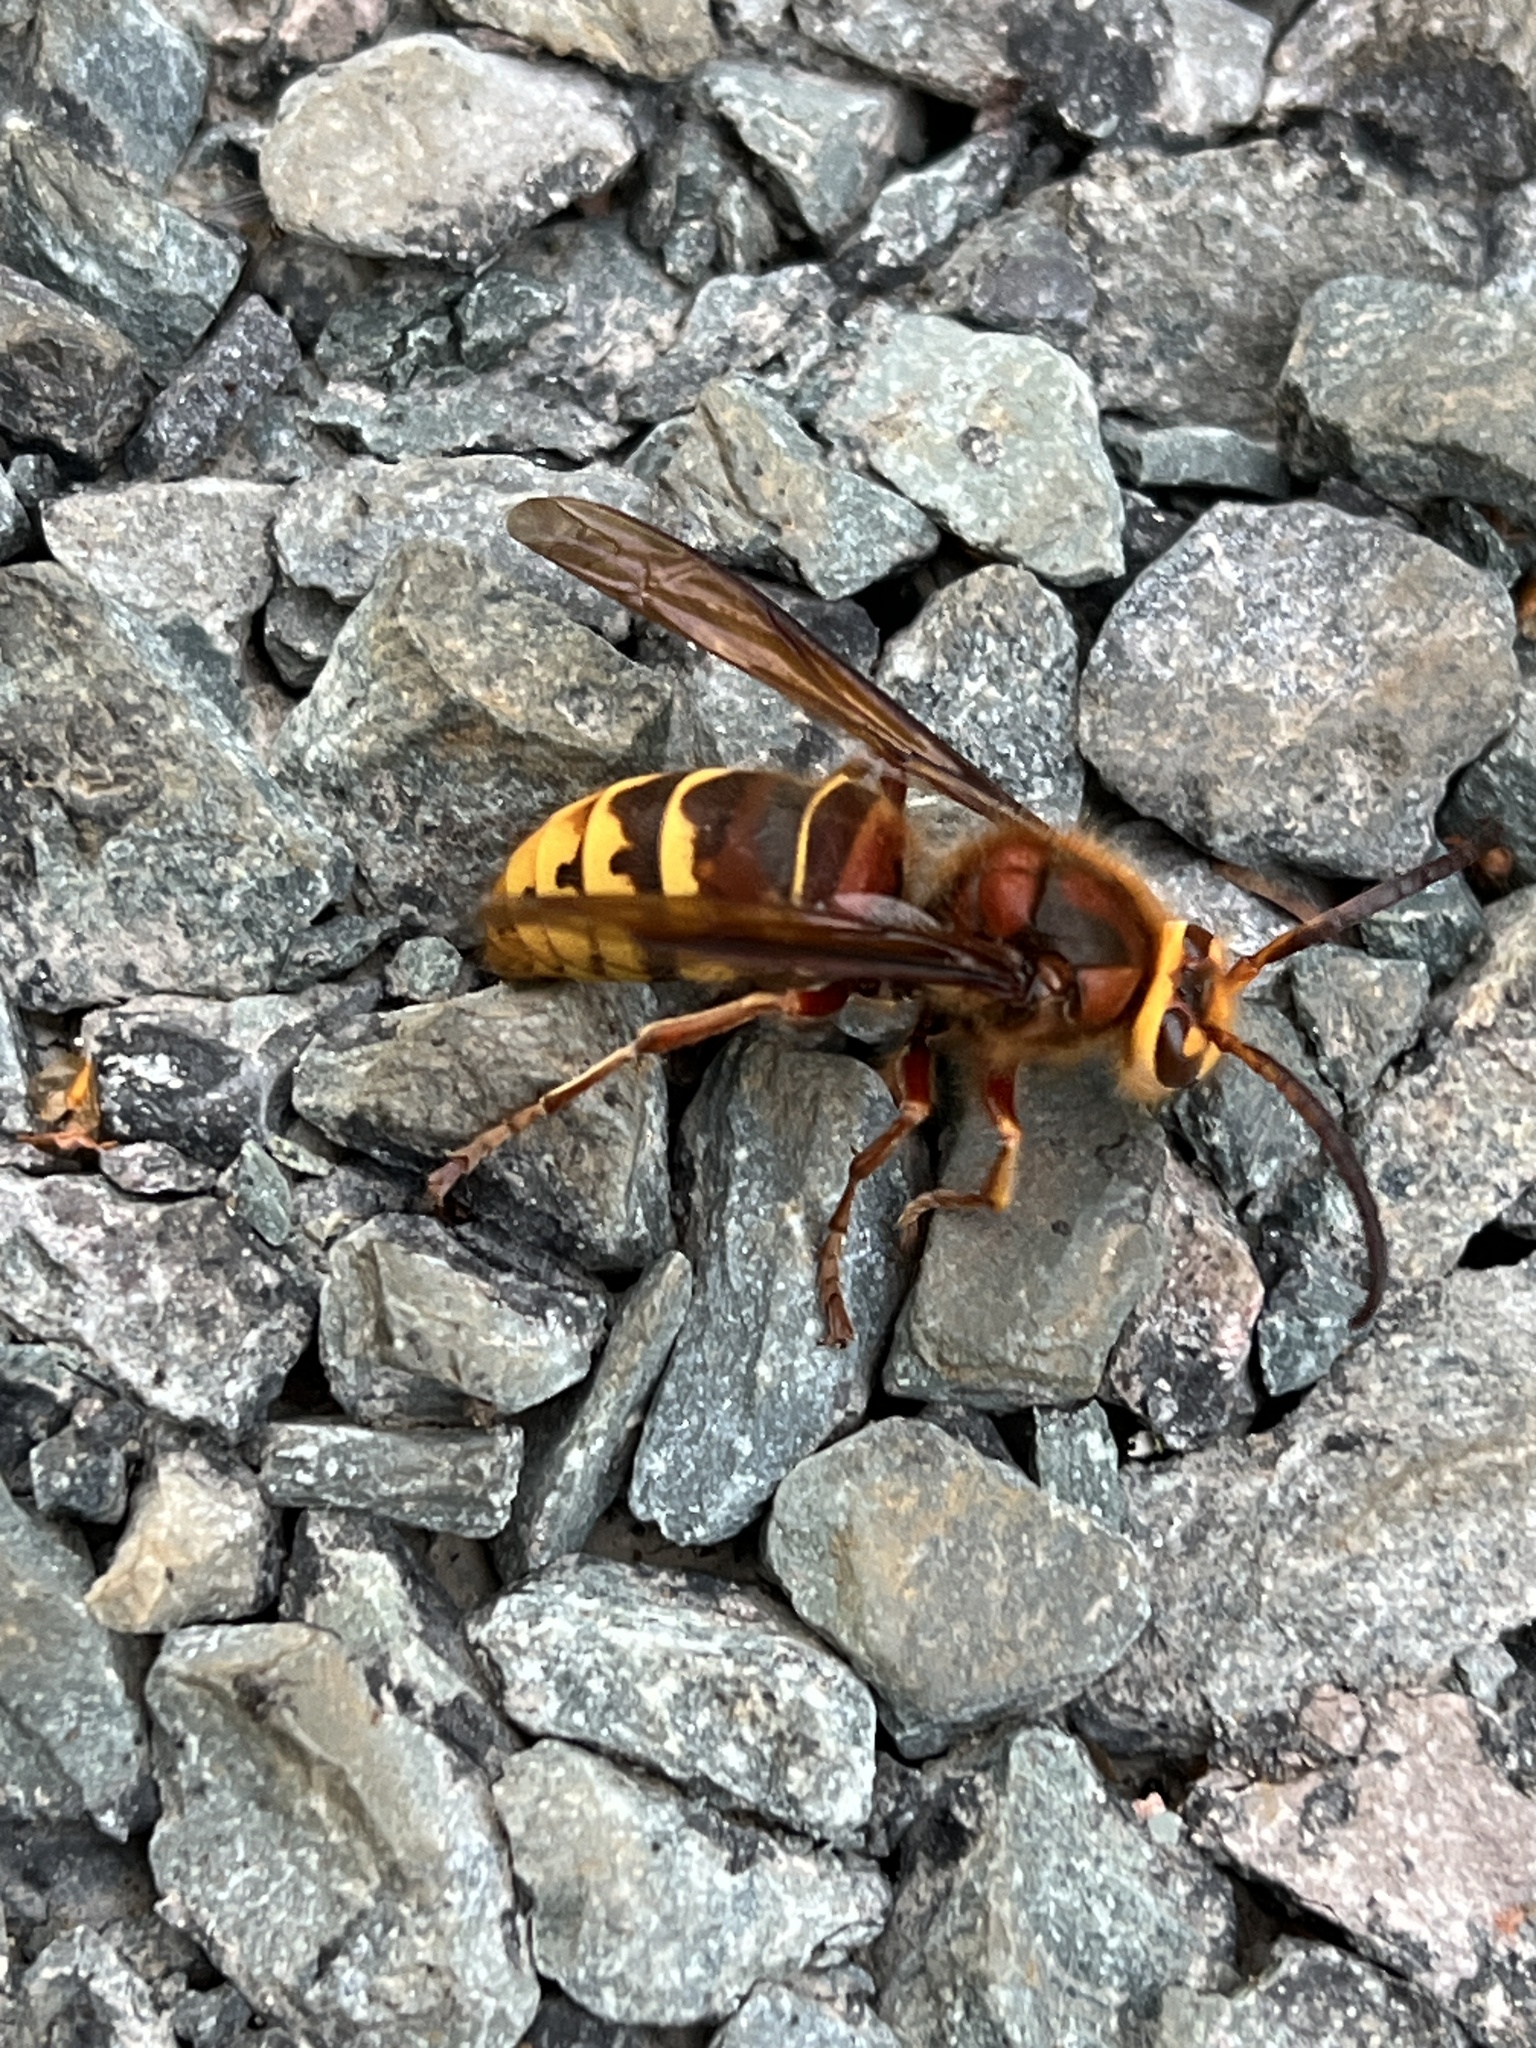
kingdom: Animalia
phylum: Arthropoda
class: Insecta
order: Hymenoptera
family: Vespidae
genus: Vespa
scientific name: Vespa crabro
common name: Hornet
